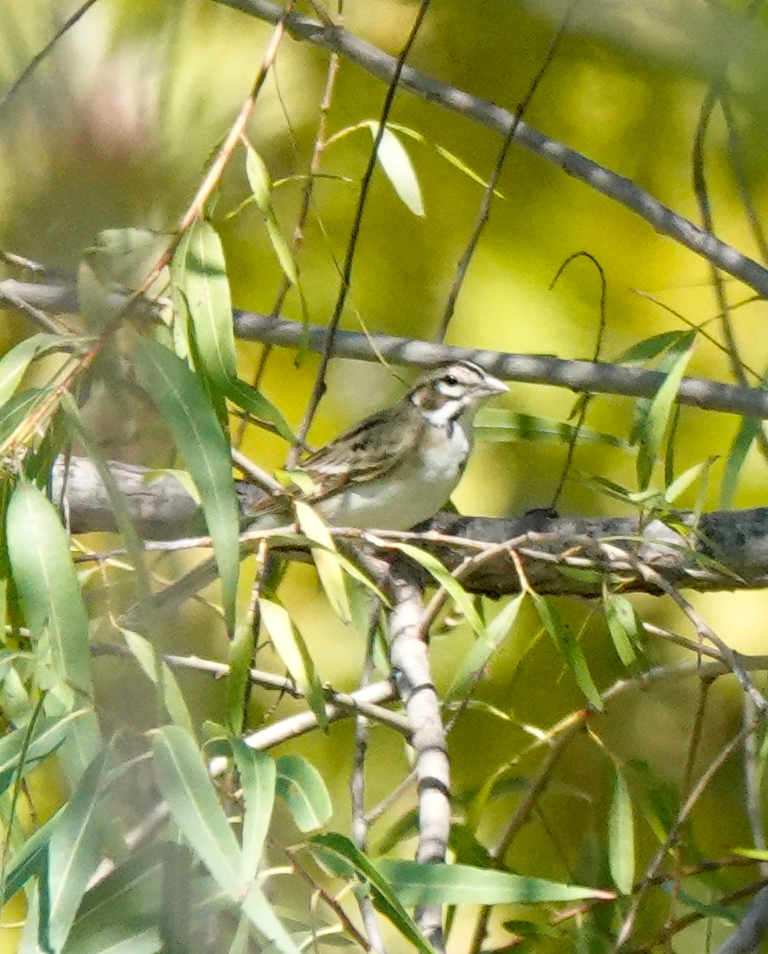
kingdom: Animalia
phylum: Chordata
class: Aves
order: Passeriformes
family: Passerellidae
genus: Chondestes
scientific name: Chondestes grammacus
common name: Lark sparrow
